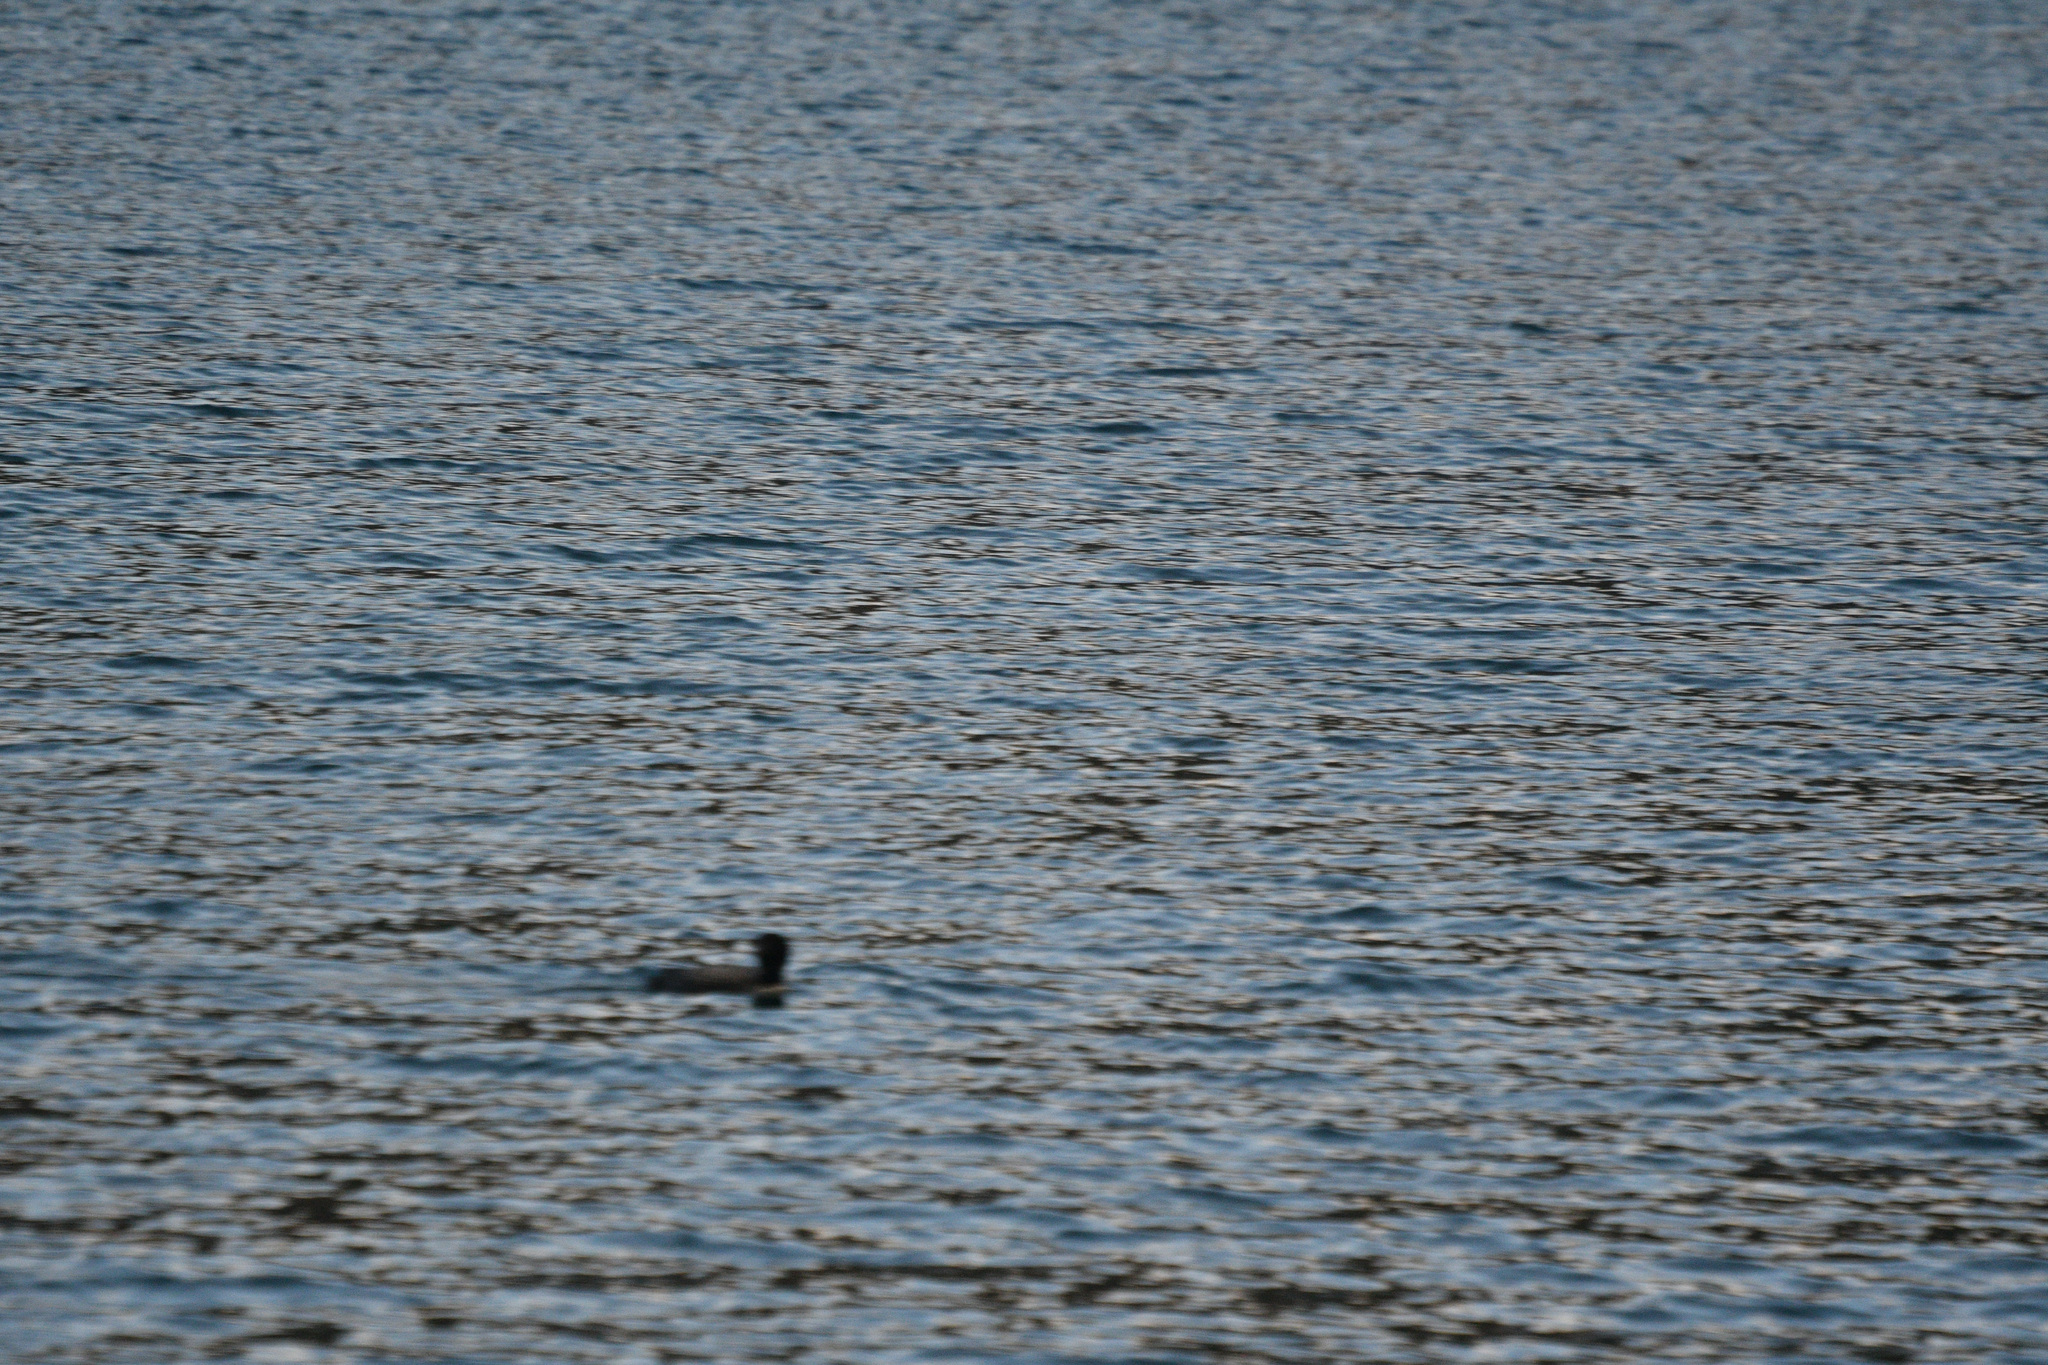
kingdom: Animalia
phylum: Chordata
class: Aves
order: Gaviiformes
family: Gaviidae
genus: Gavia
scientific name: Gavia immer
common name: Common loon
